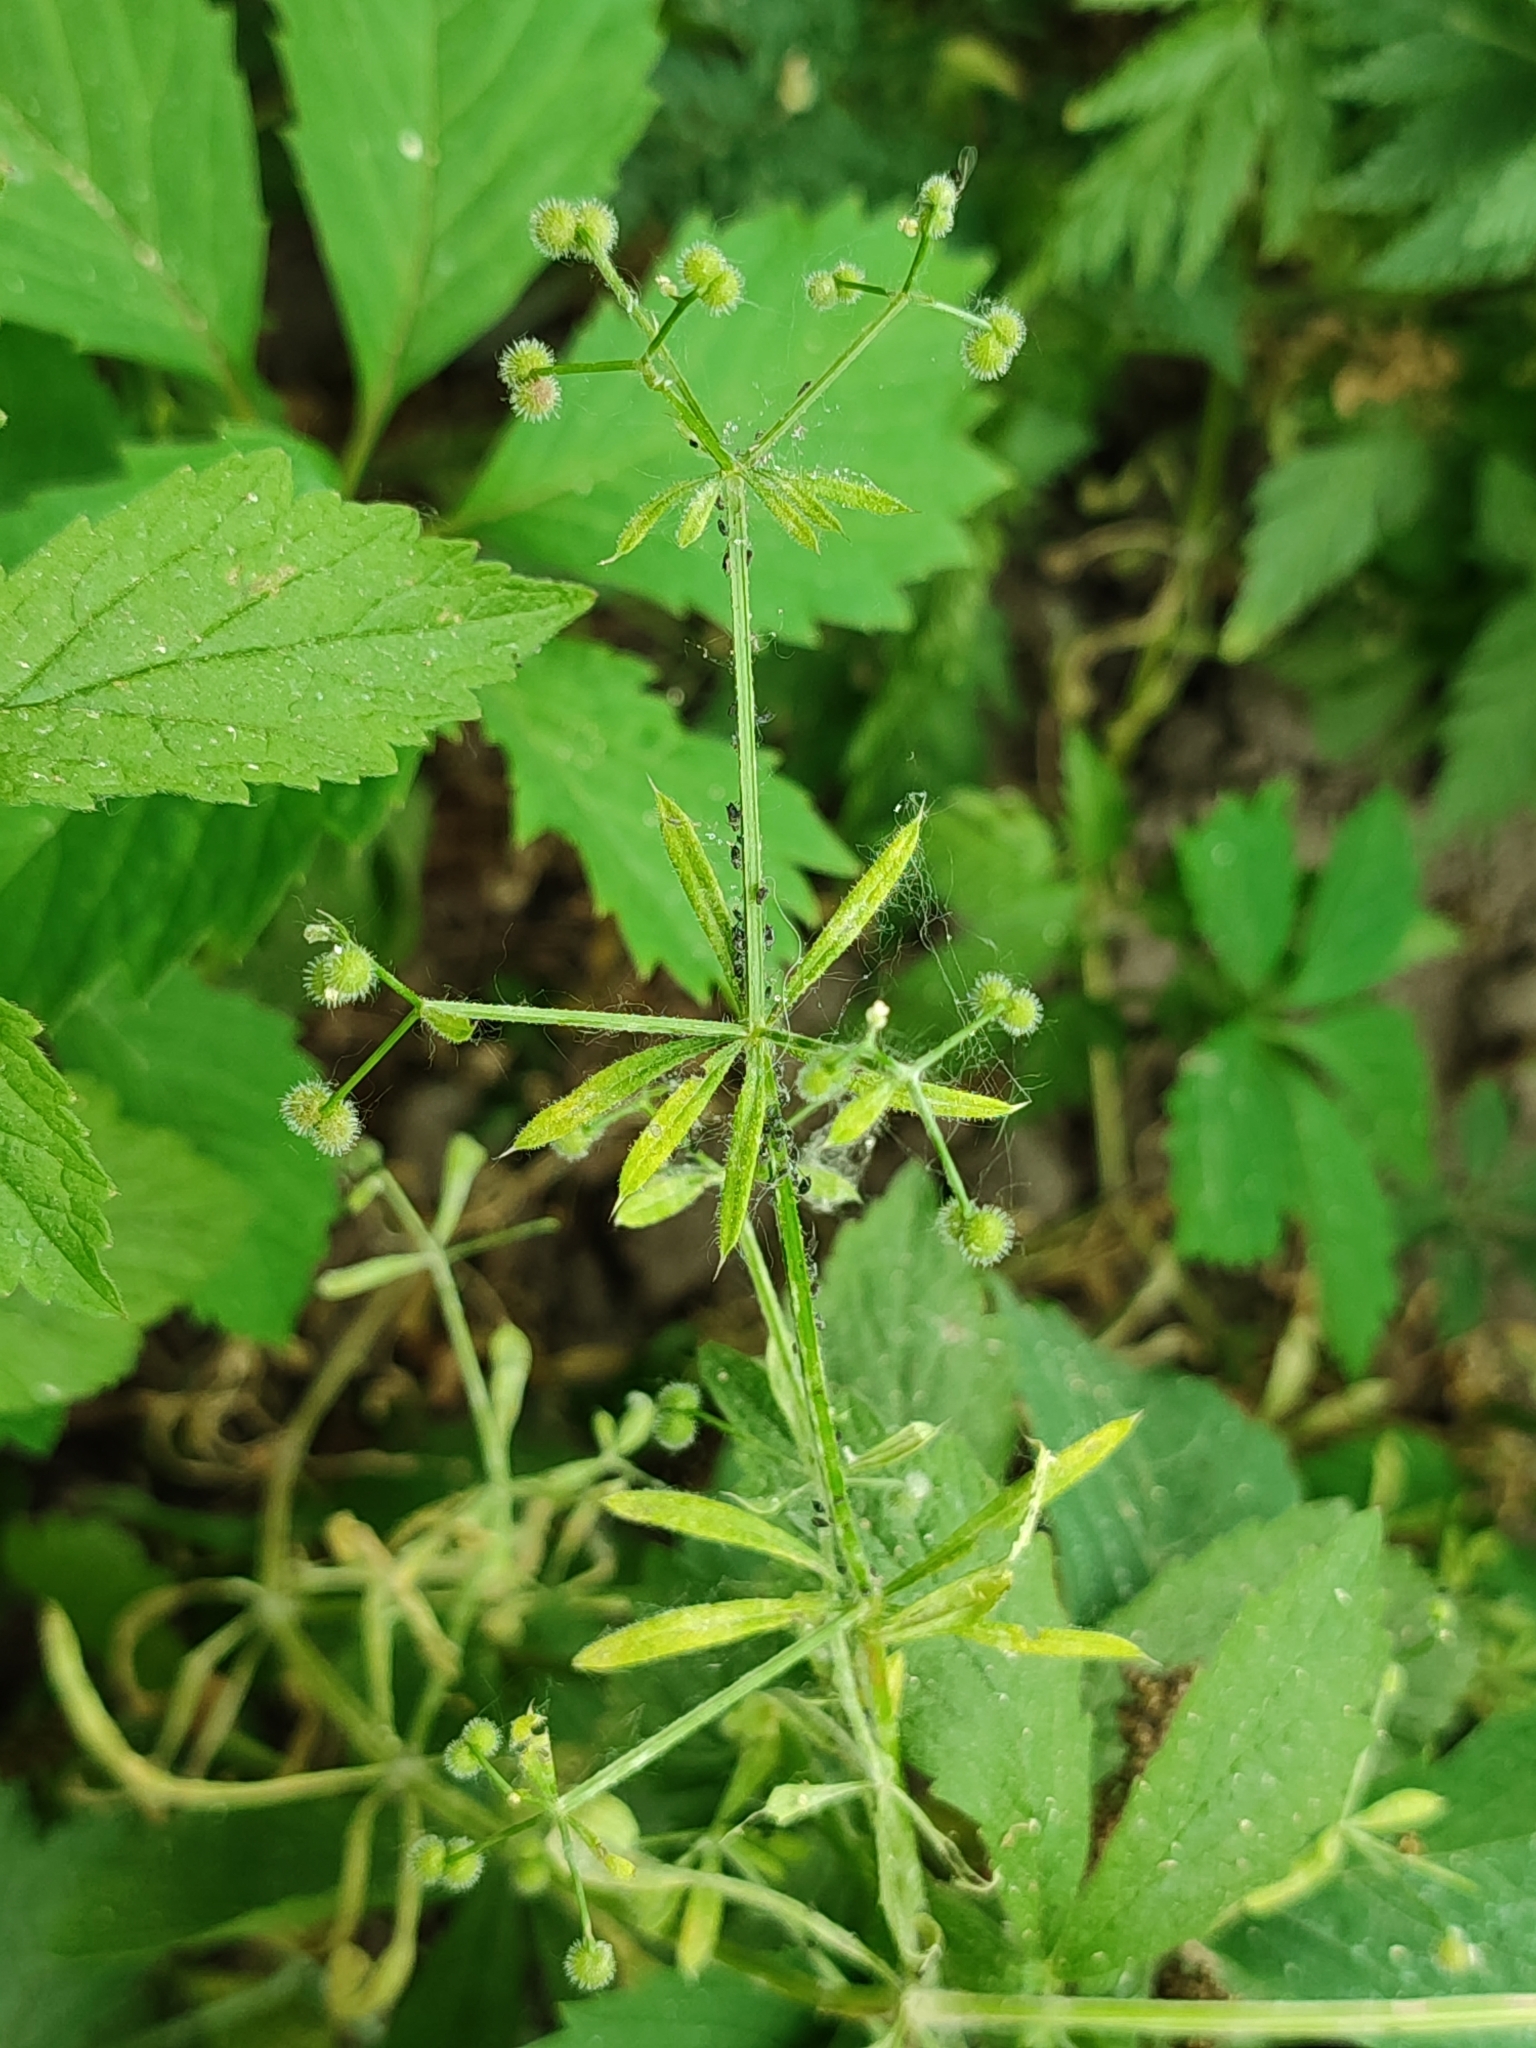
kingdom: Plantae
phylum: Tracheophyta
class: Magnoliopsida
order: Gentianales
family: Rubiaceae
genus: Galium
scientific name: Galium aparine
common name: Cleavers
